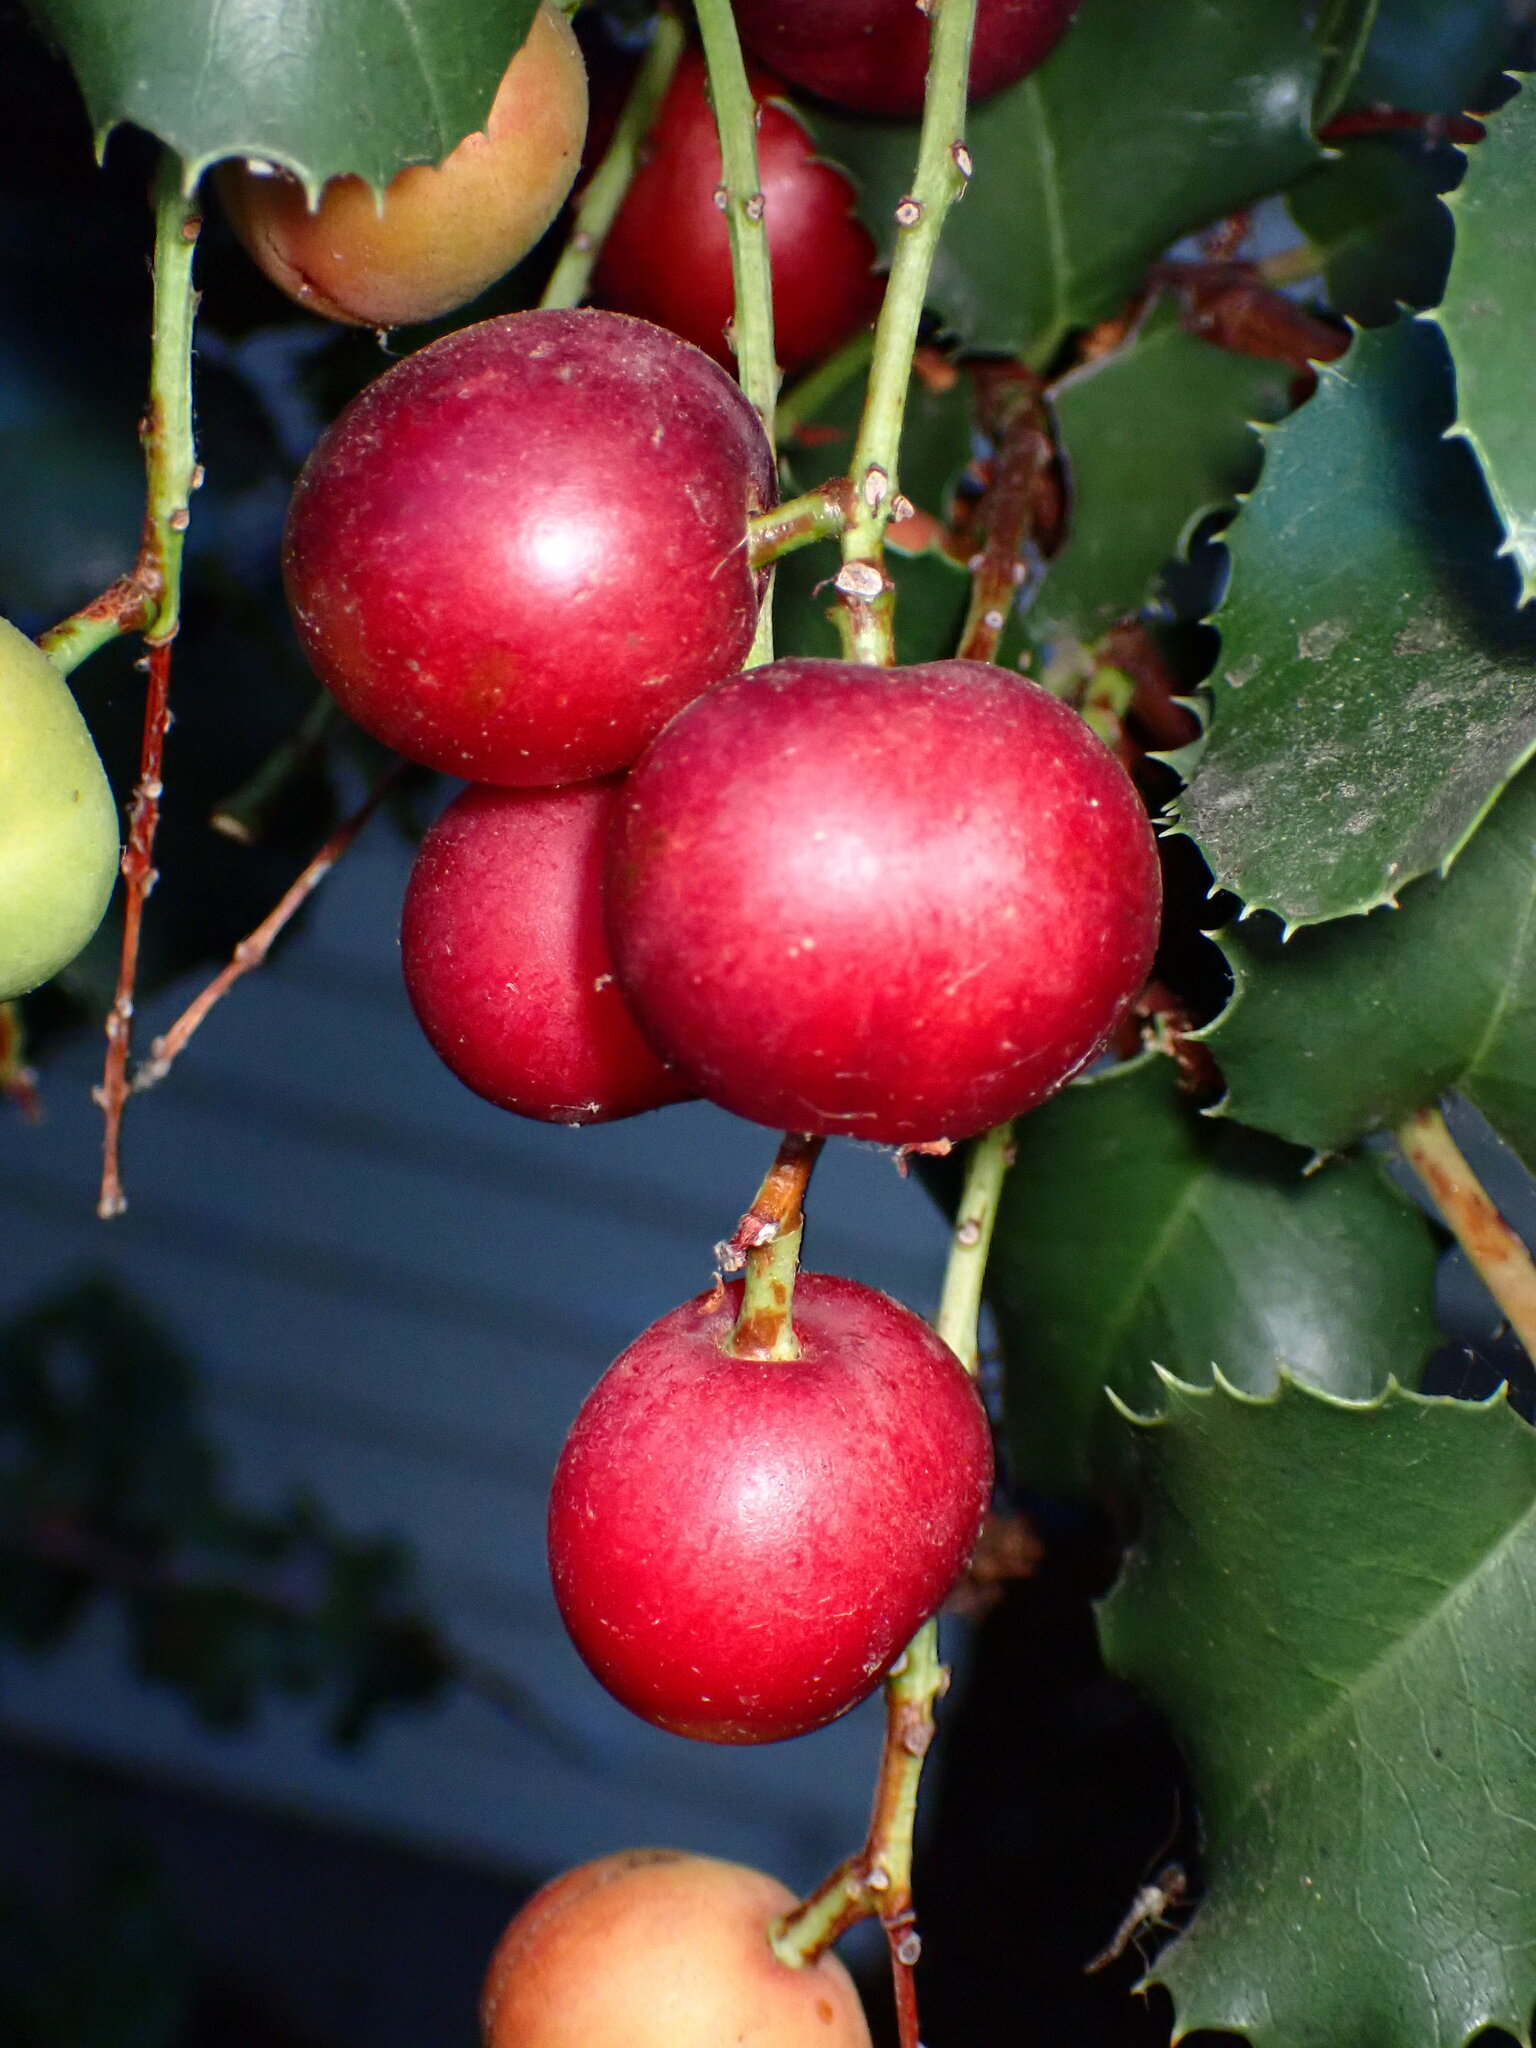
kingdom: Plantae
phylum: Tracheophyta
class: Magnoliopsida
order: Rosales
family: Rosaceae
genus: Prunus
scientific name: Prunus ilicifolia
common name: Hollyleaf cherry
